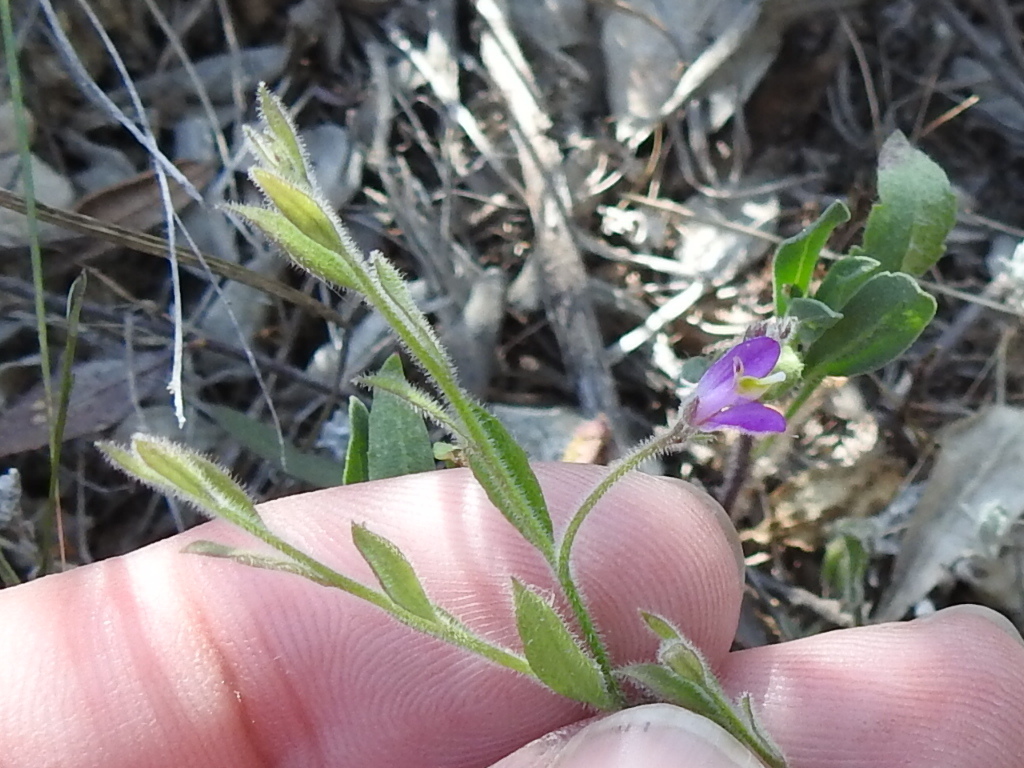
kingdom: Plantae
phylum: Tracheophyta
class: Magnoliopsida
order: Fabales
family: Polygalaceae
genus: Rhinotropis
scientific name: Rhinotropis lindheimeri
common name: Shrubby milkwort
